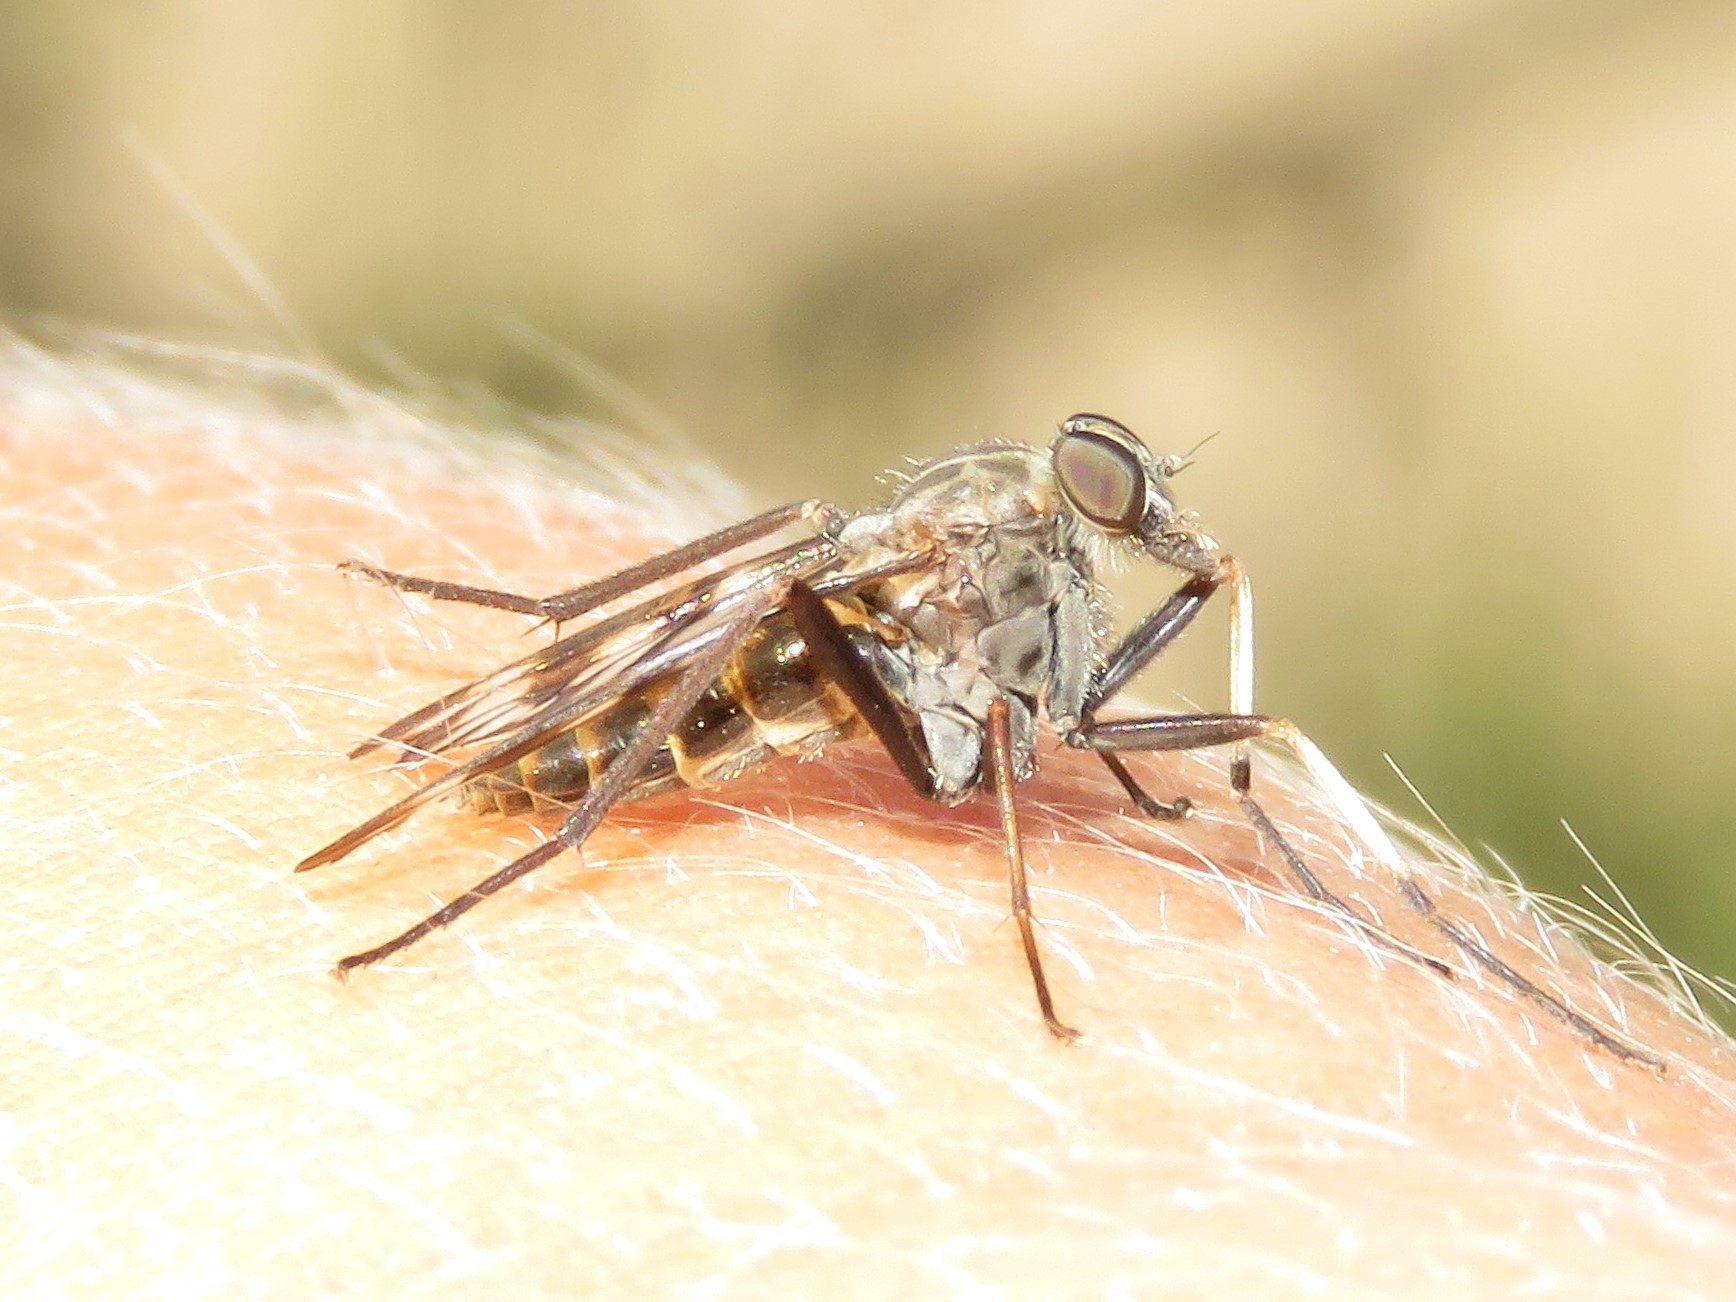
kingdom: Animalia
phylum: Arthropoda
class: Insecta
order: Diptera
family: Rhagionidae
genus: Rhagio
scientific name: Rhagio mystaceus
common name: Common snipe fly
